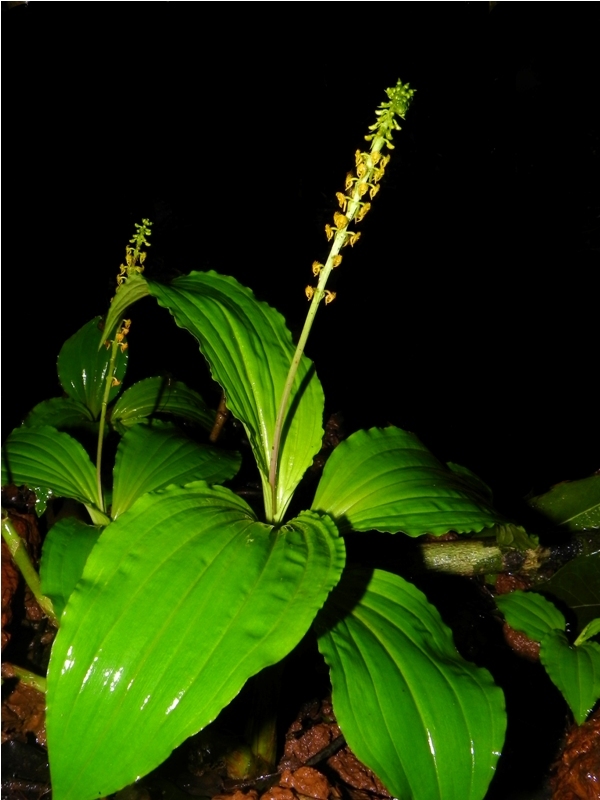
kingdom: Plantae
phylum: Tracheophyta
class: Liliopsida
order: Asparagales
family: Orchidaceae
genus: Malaxis
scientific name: Malaxis versicolor
